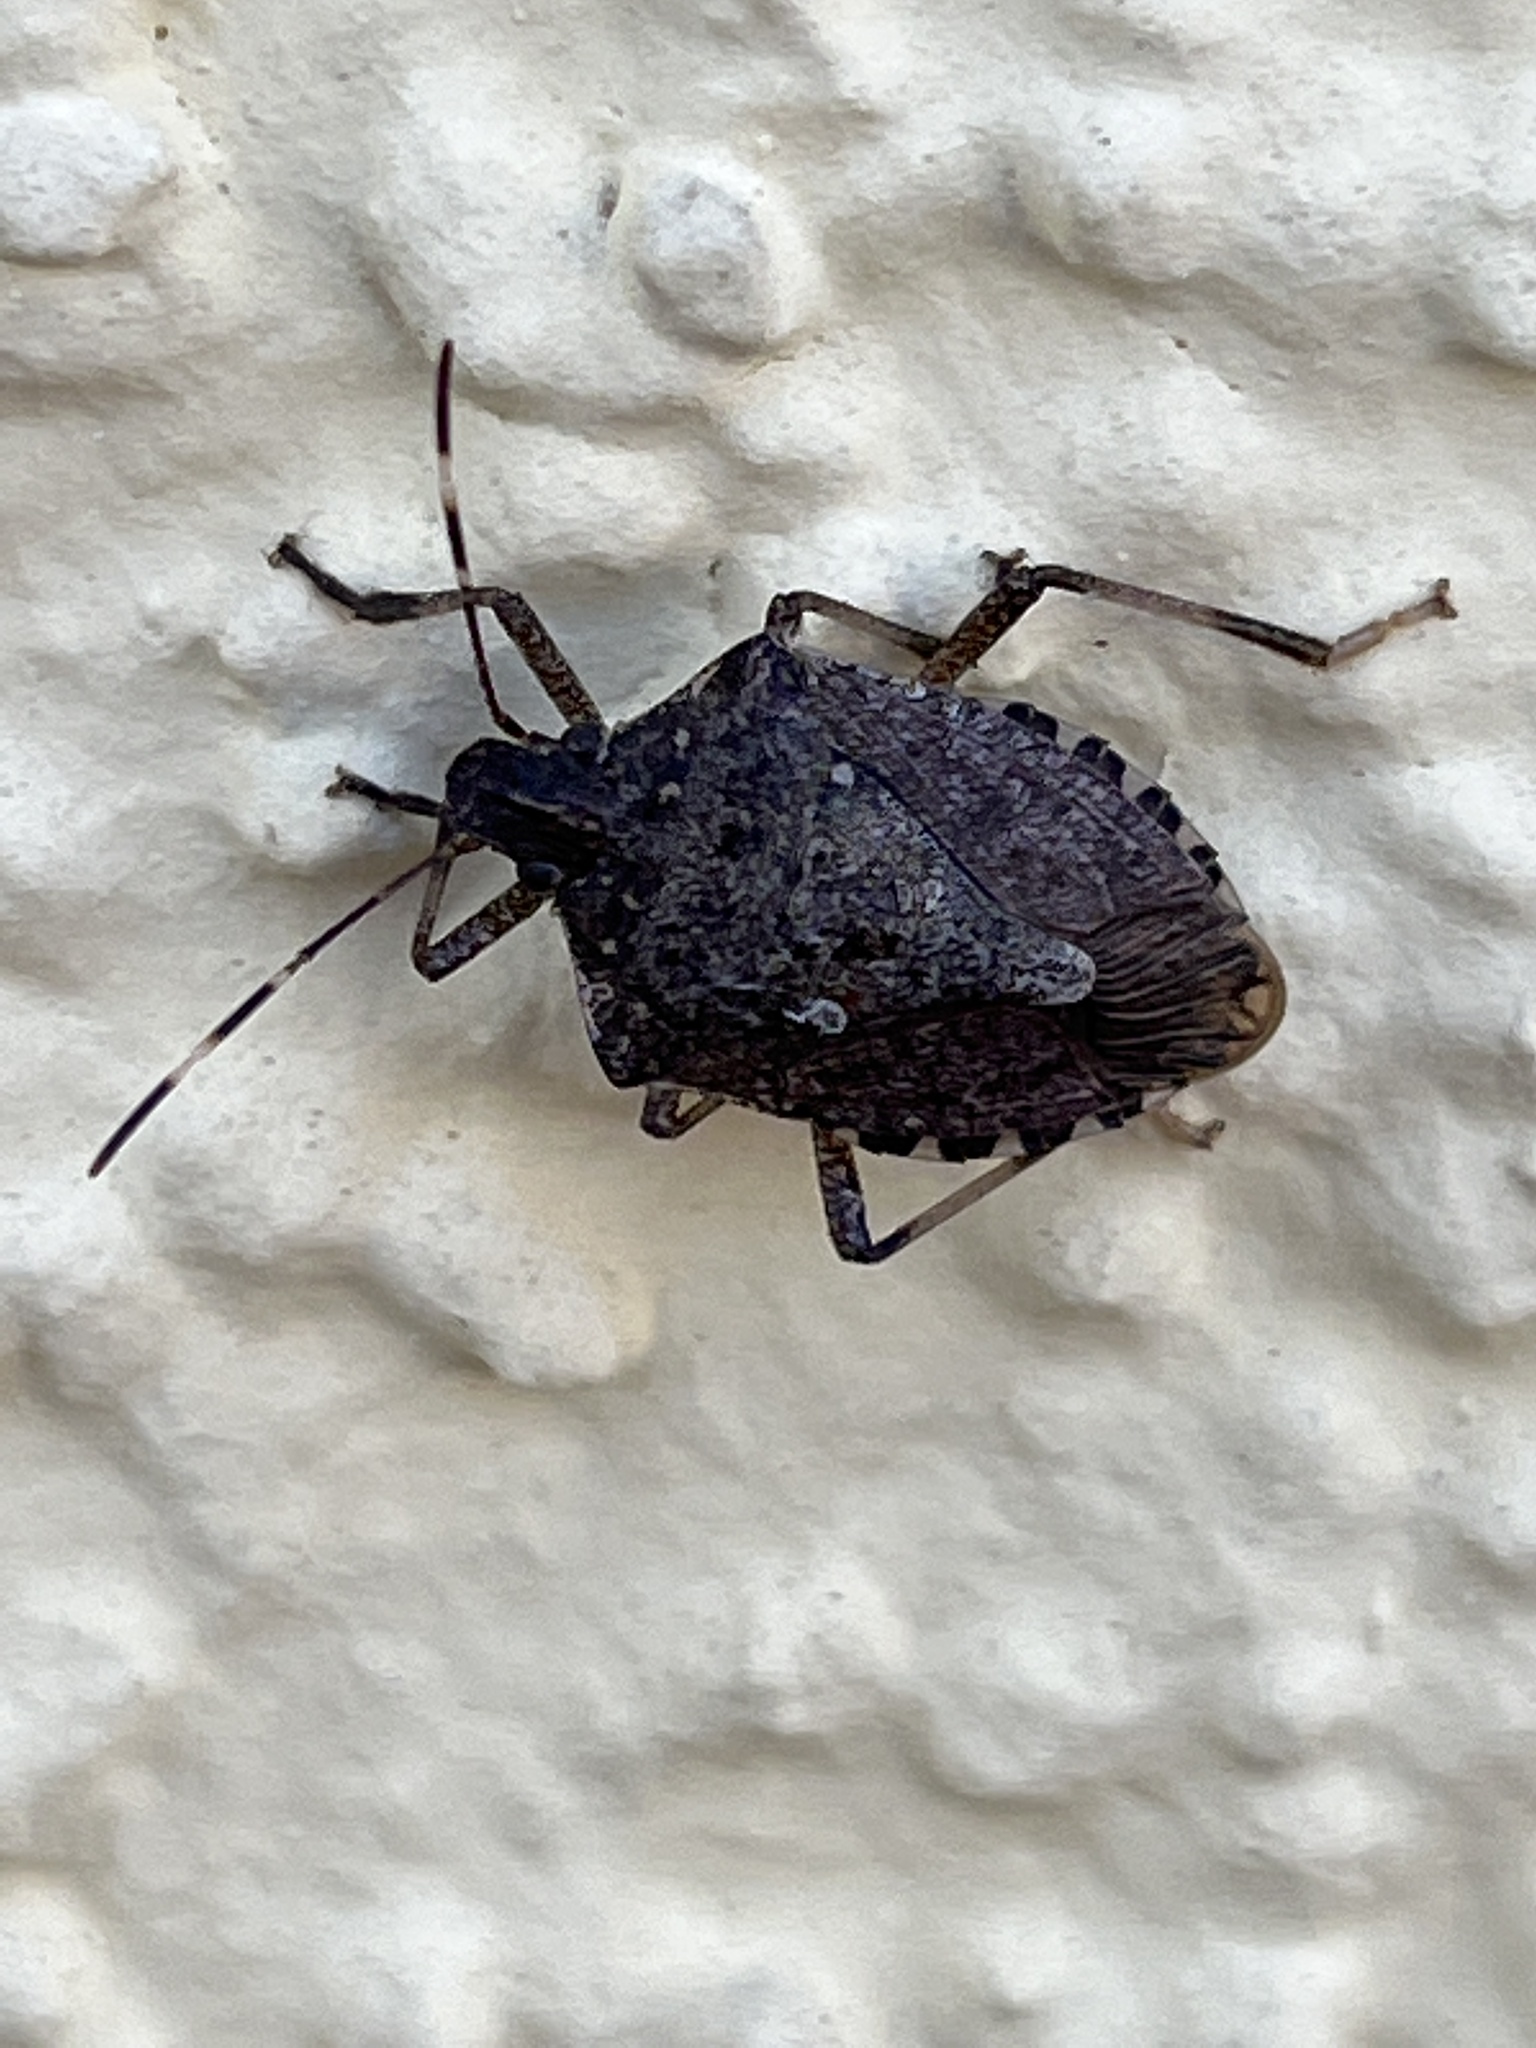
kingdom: Animalia
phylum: Arthropoda
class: Insecta
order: Hemiptera
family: Pentatomidae
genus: Halyomorpha
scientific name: Halyomorpha halys
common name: Brown marmorated stink bug
